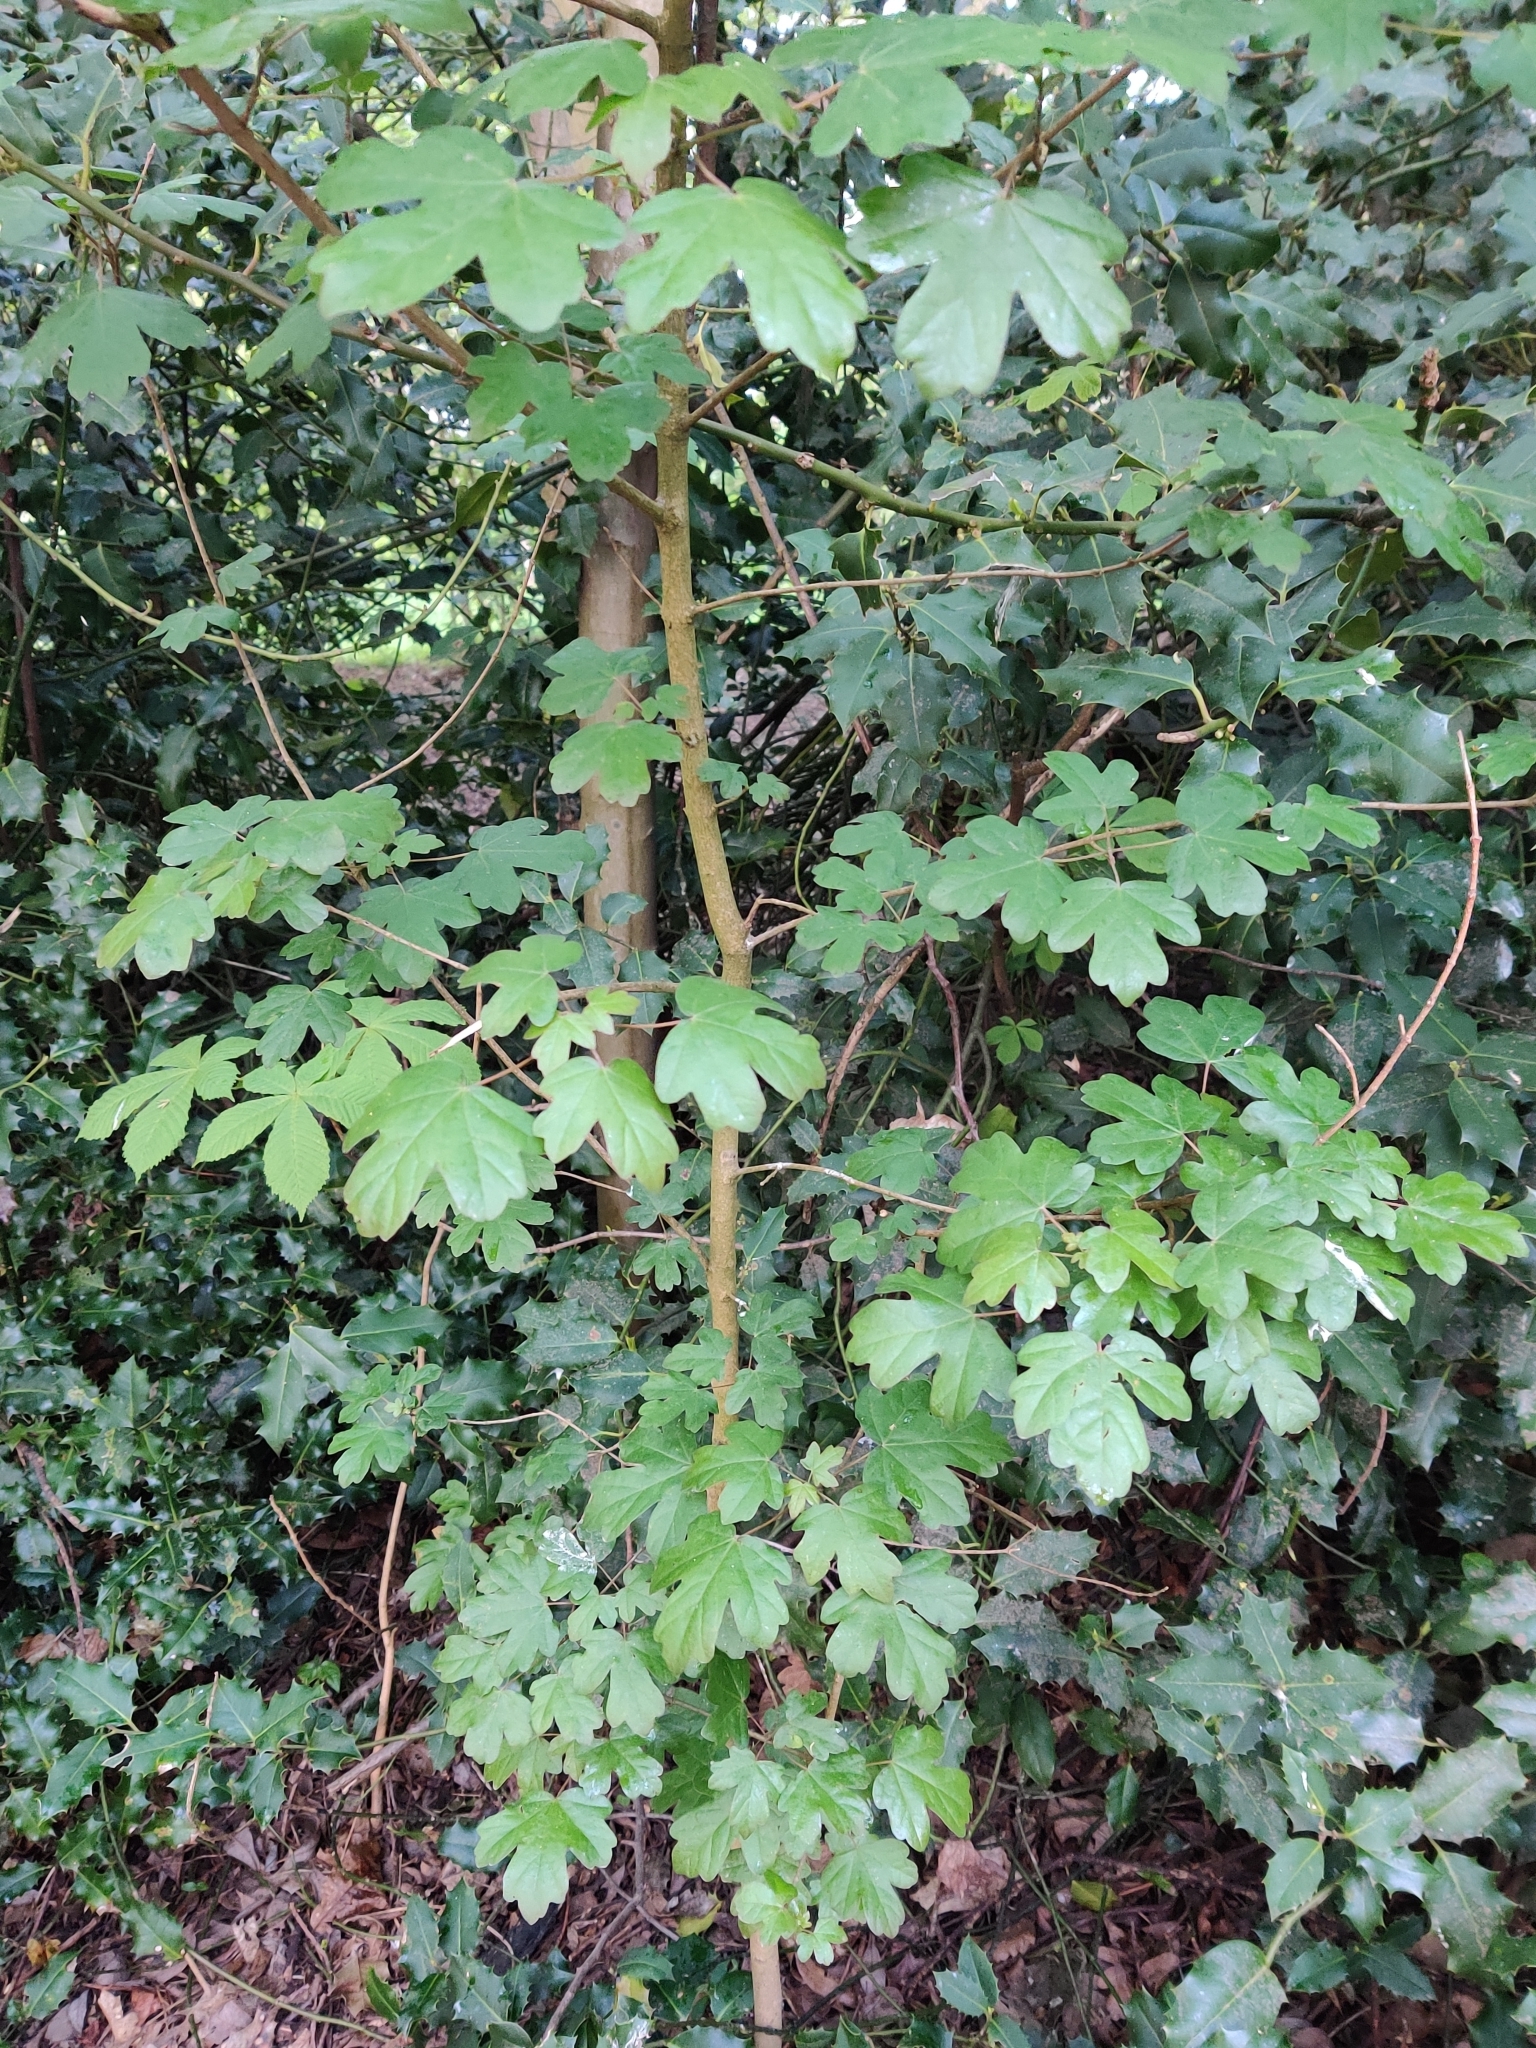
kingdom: Plantae
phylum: Tracheophyta
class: Magnoliopsida
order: Sapindales
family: Sapindaceae
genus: Acer
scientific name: Acer campestre
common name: Field maple
